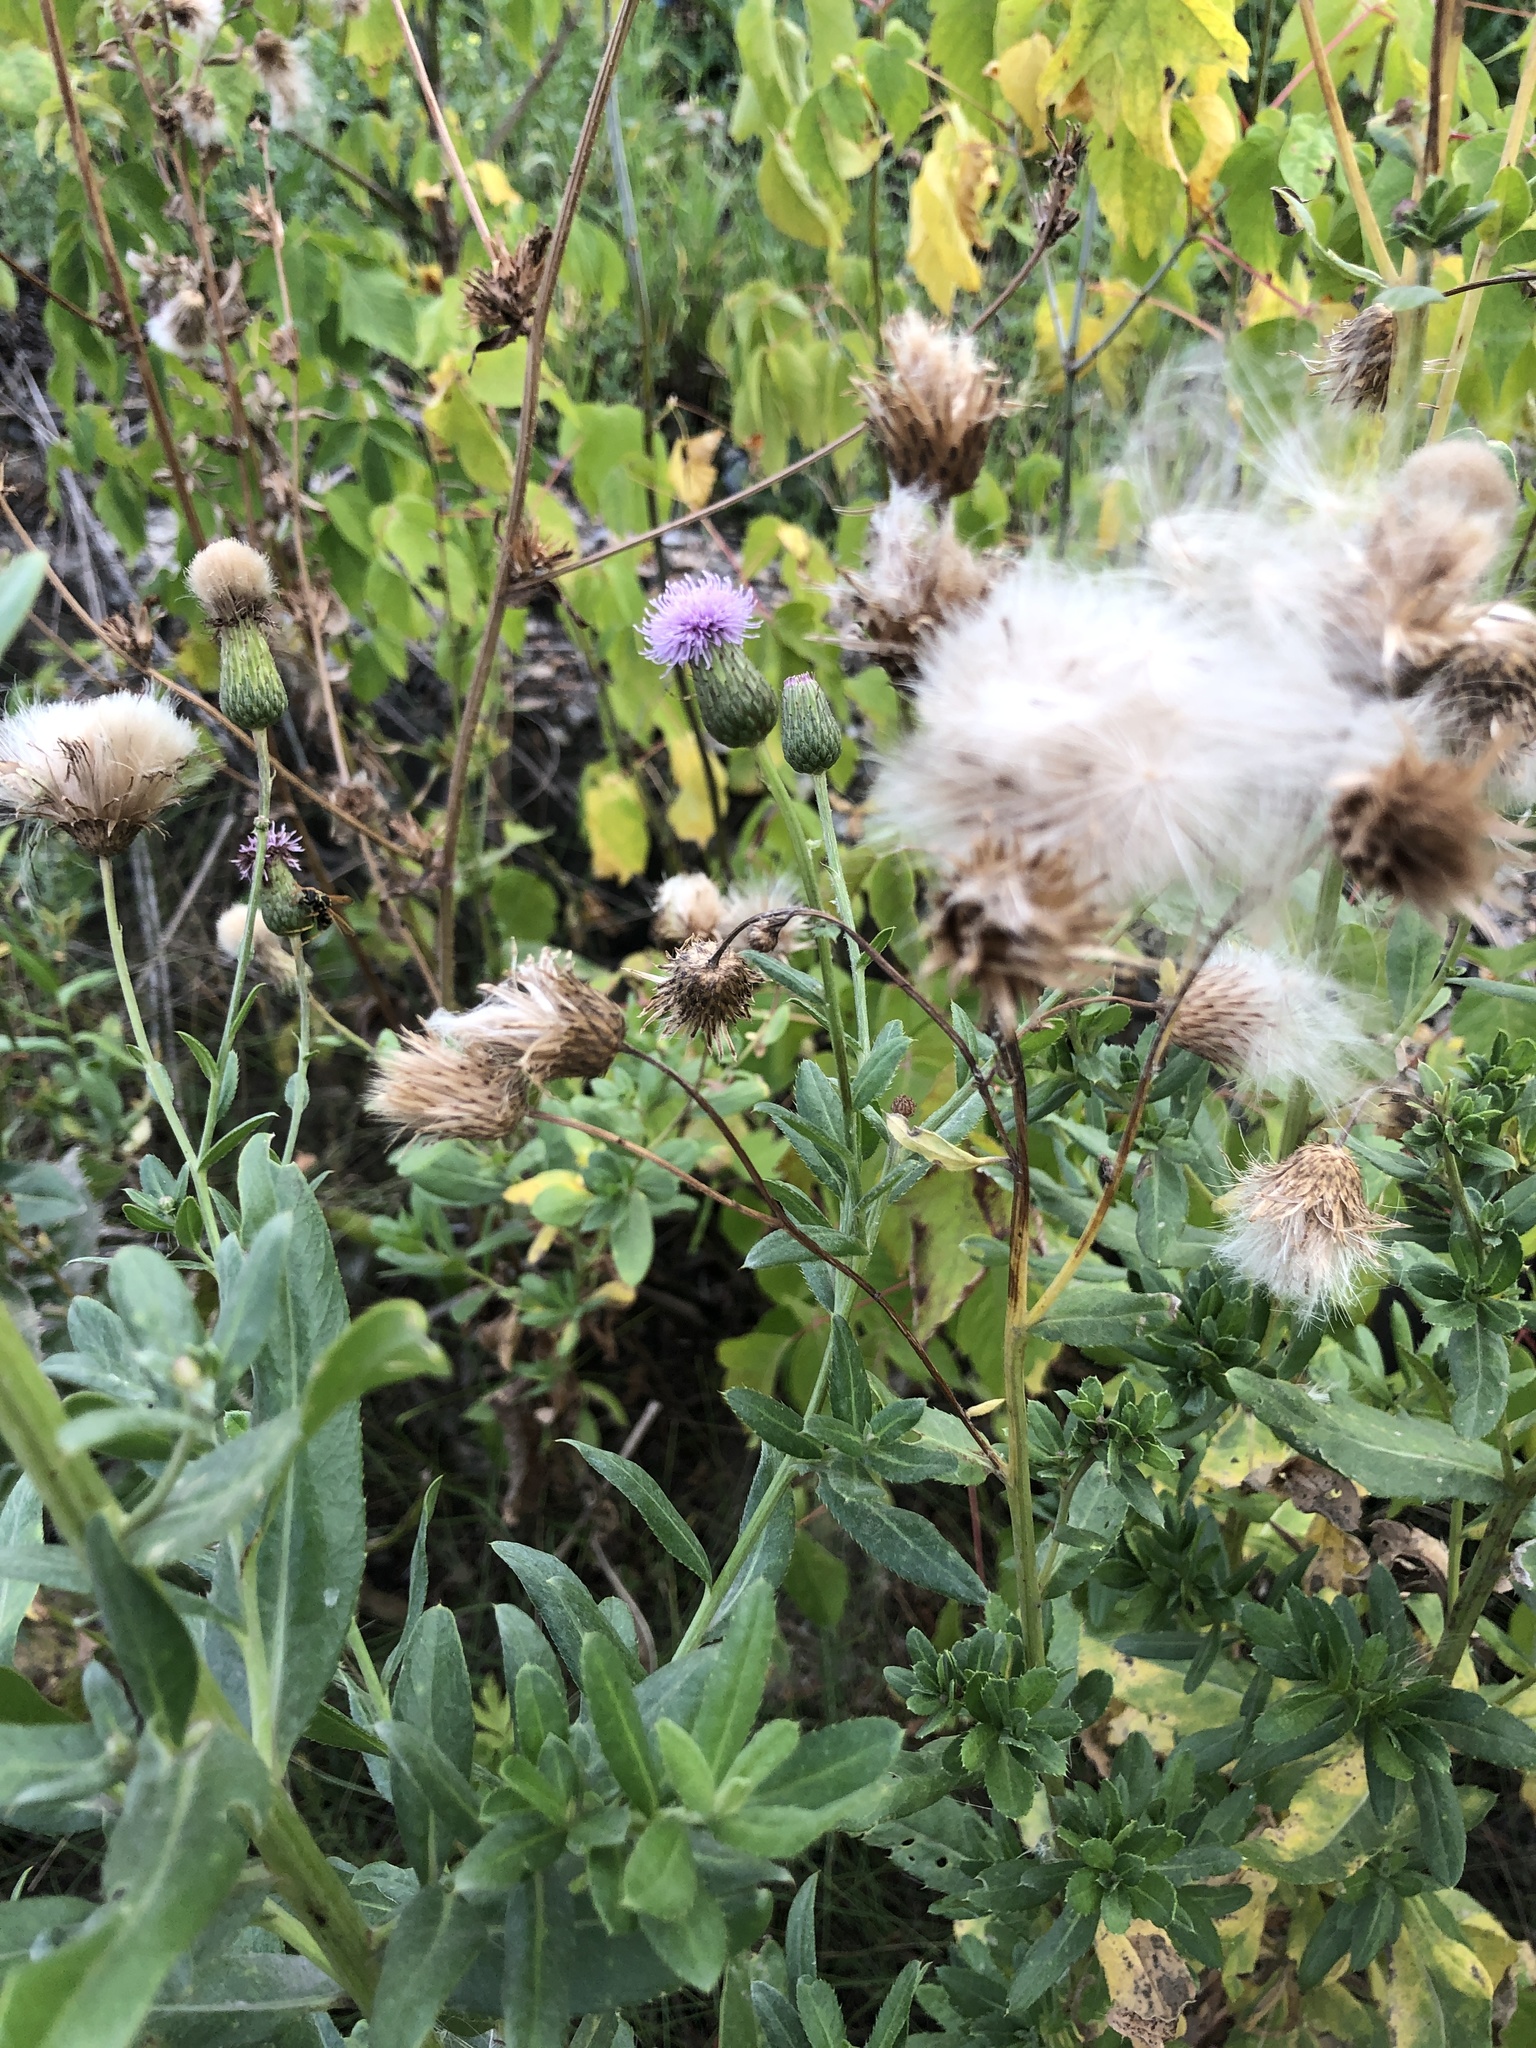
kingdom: Plantae
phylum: Tracheophyta
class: Magnoliopsida
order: Asterales
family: Asteraceae
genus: Cirsium
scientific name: Cirsium arvense
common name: Creeping thistle
